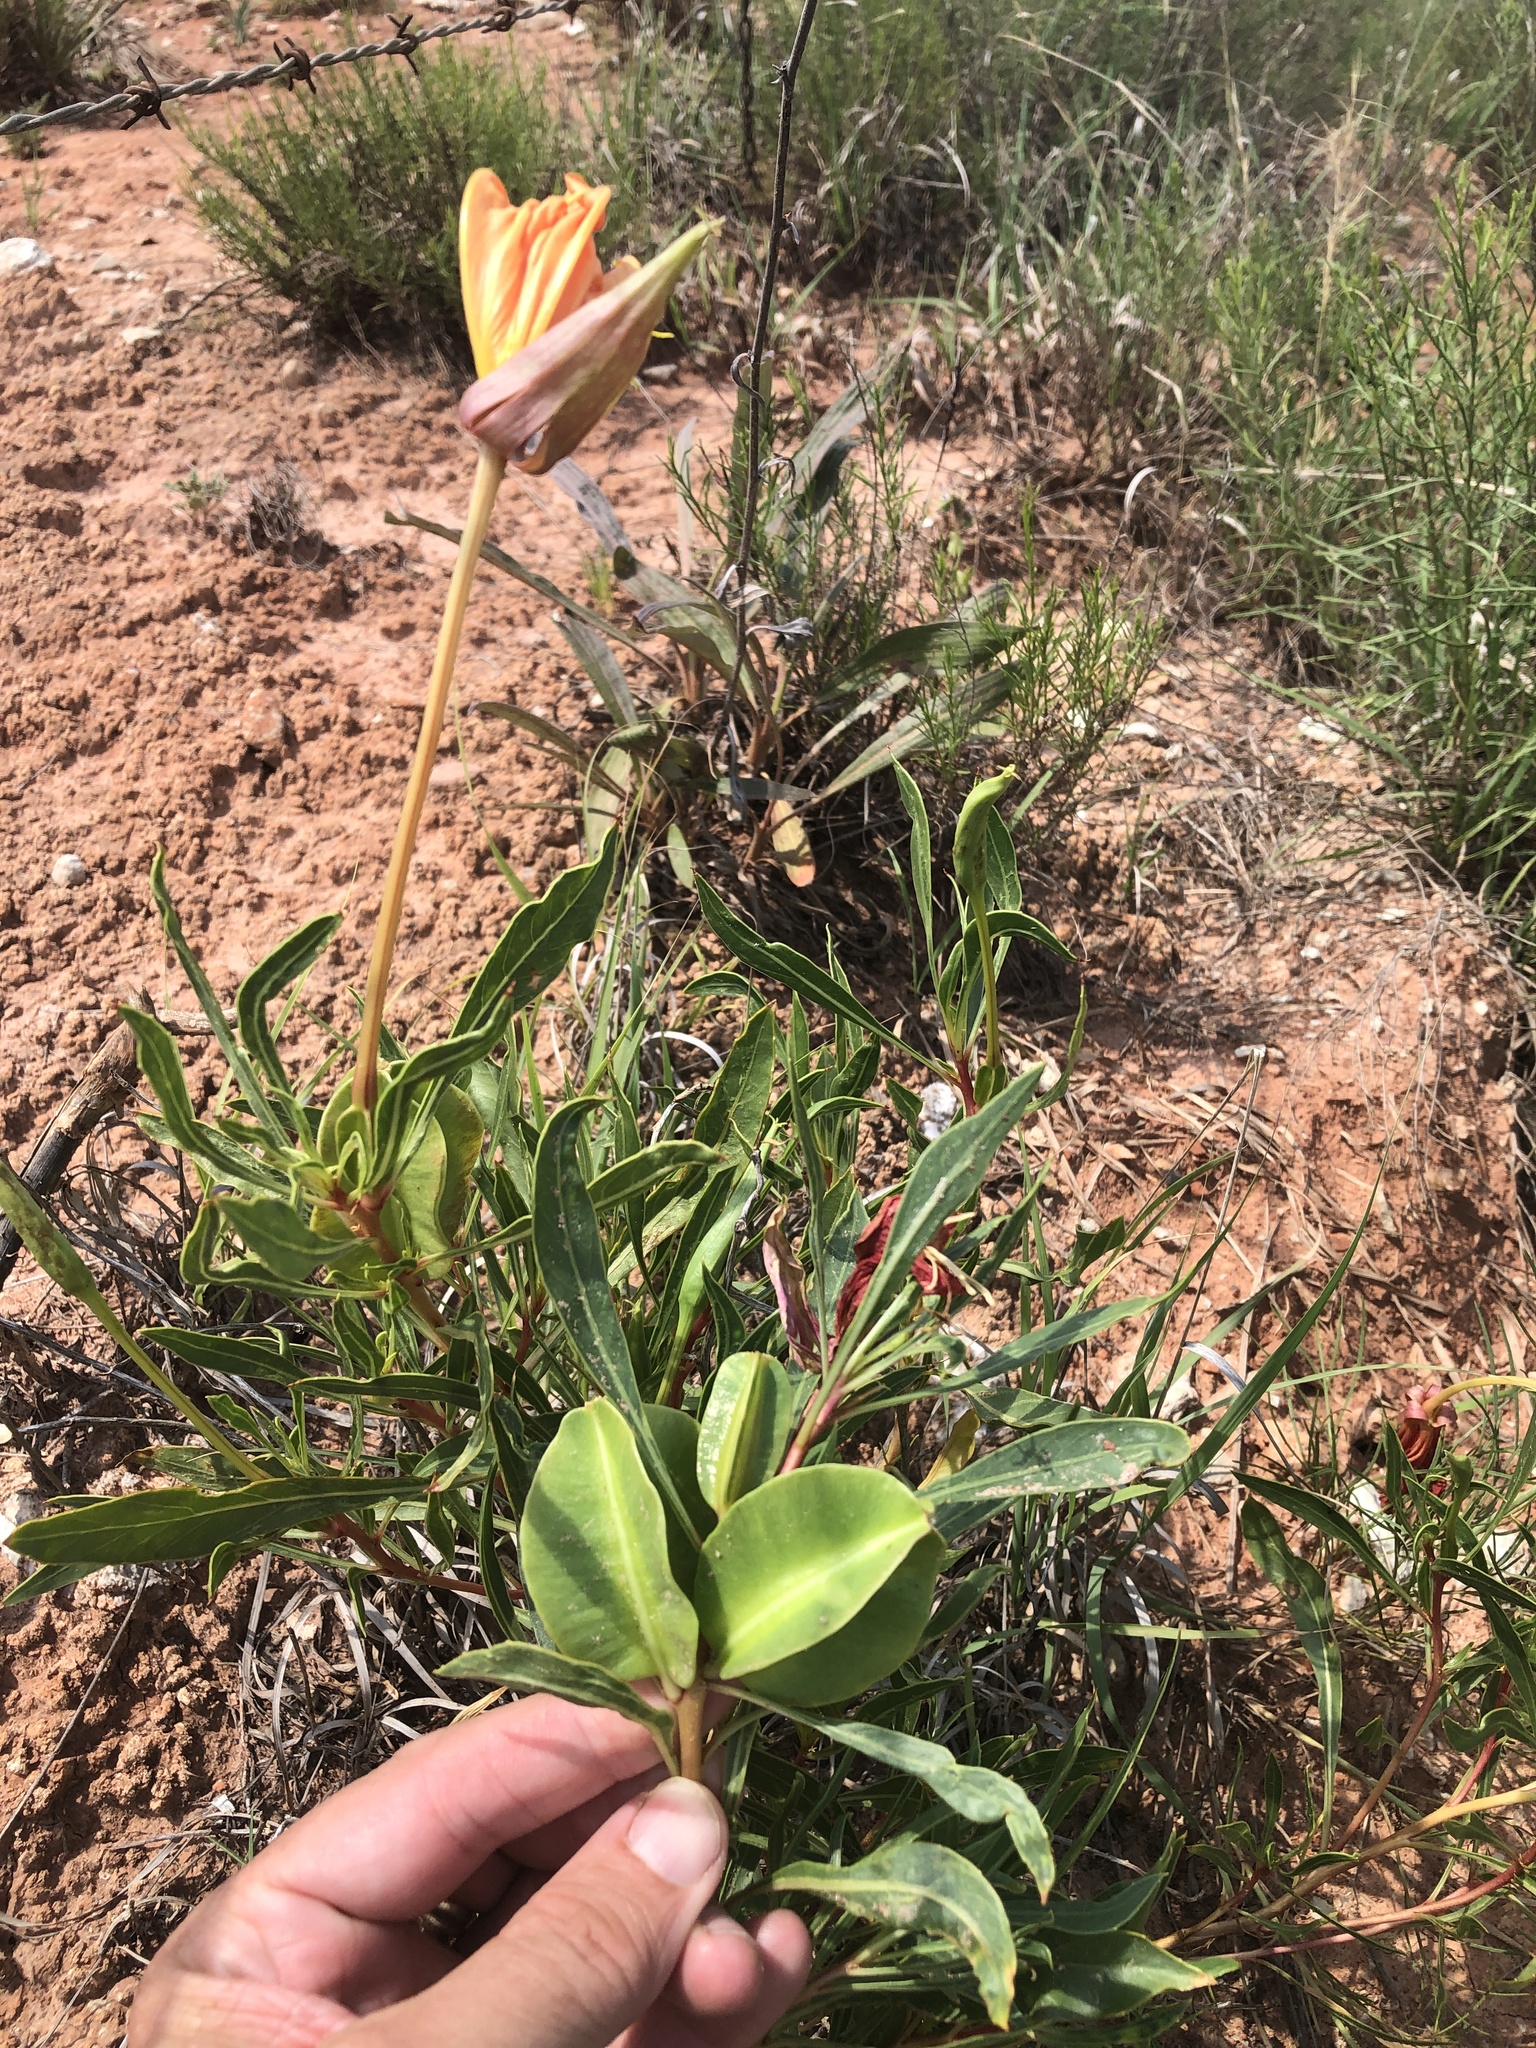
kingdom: Plantae
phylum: Tracheophyta
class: Magnoliopsida
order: Myrtales
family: Onagraceae
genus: Oenothera
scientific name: Oenothera macrocarpa
